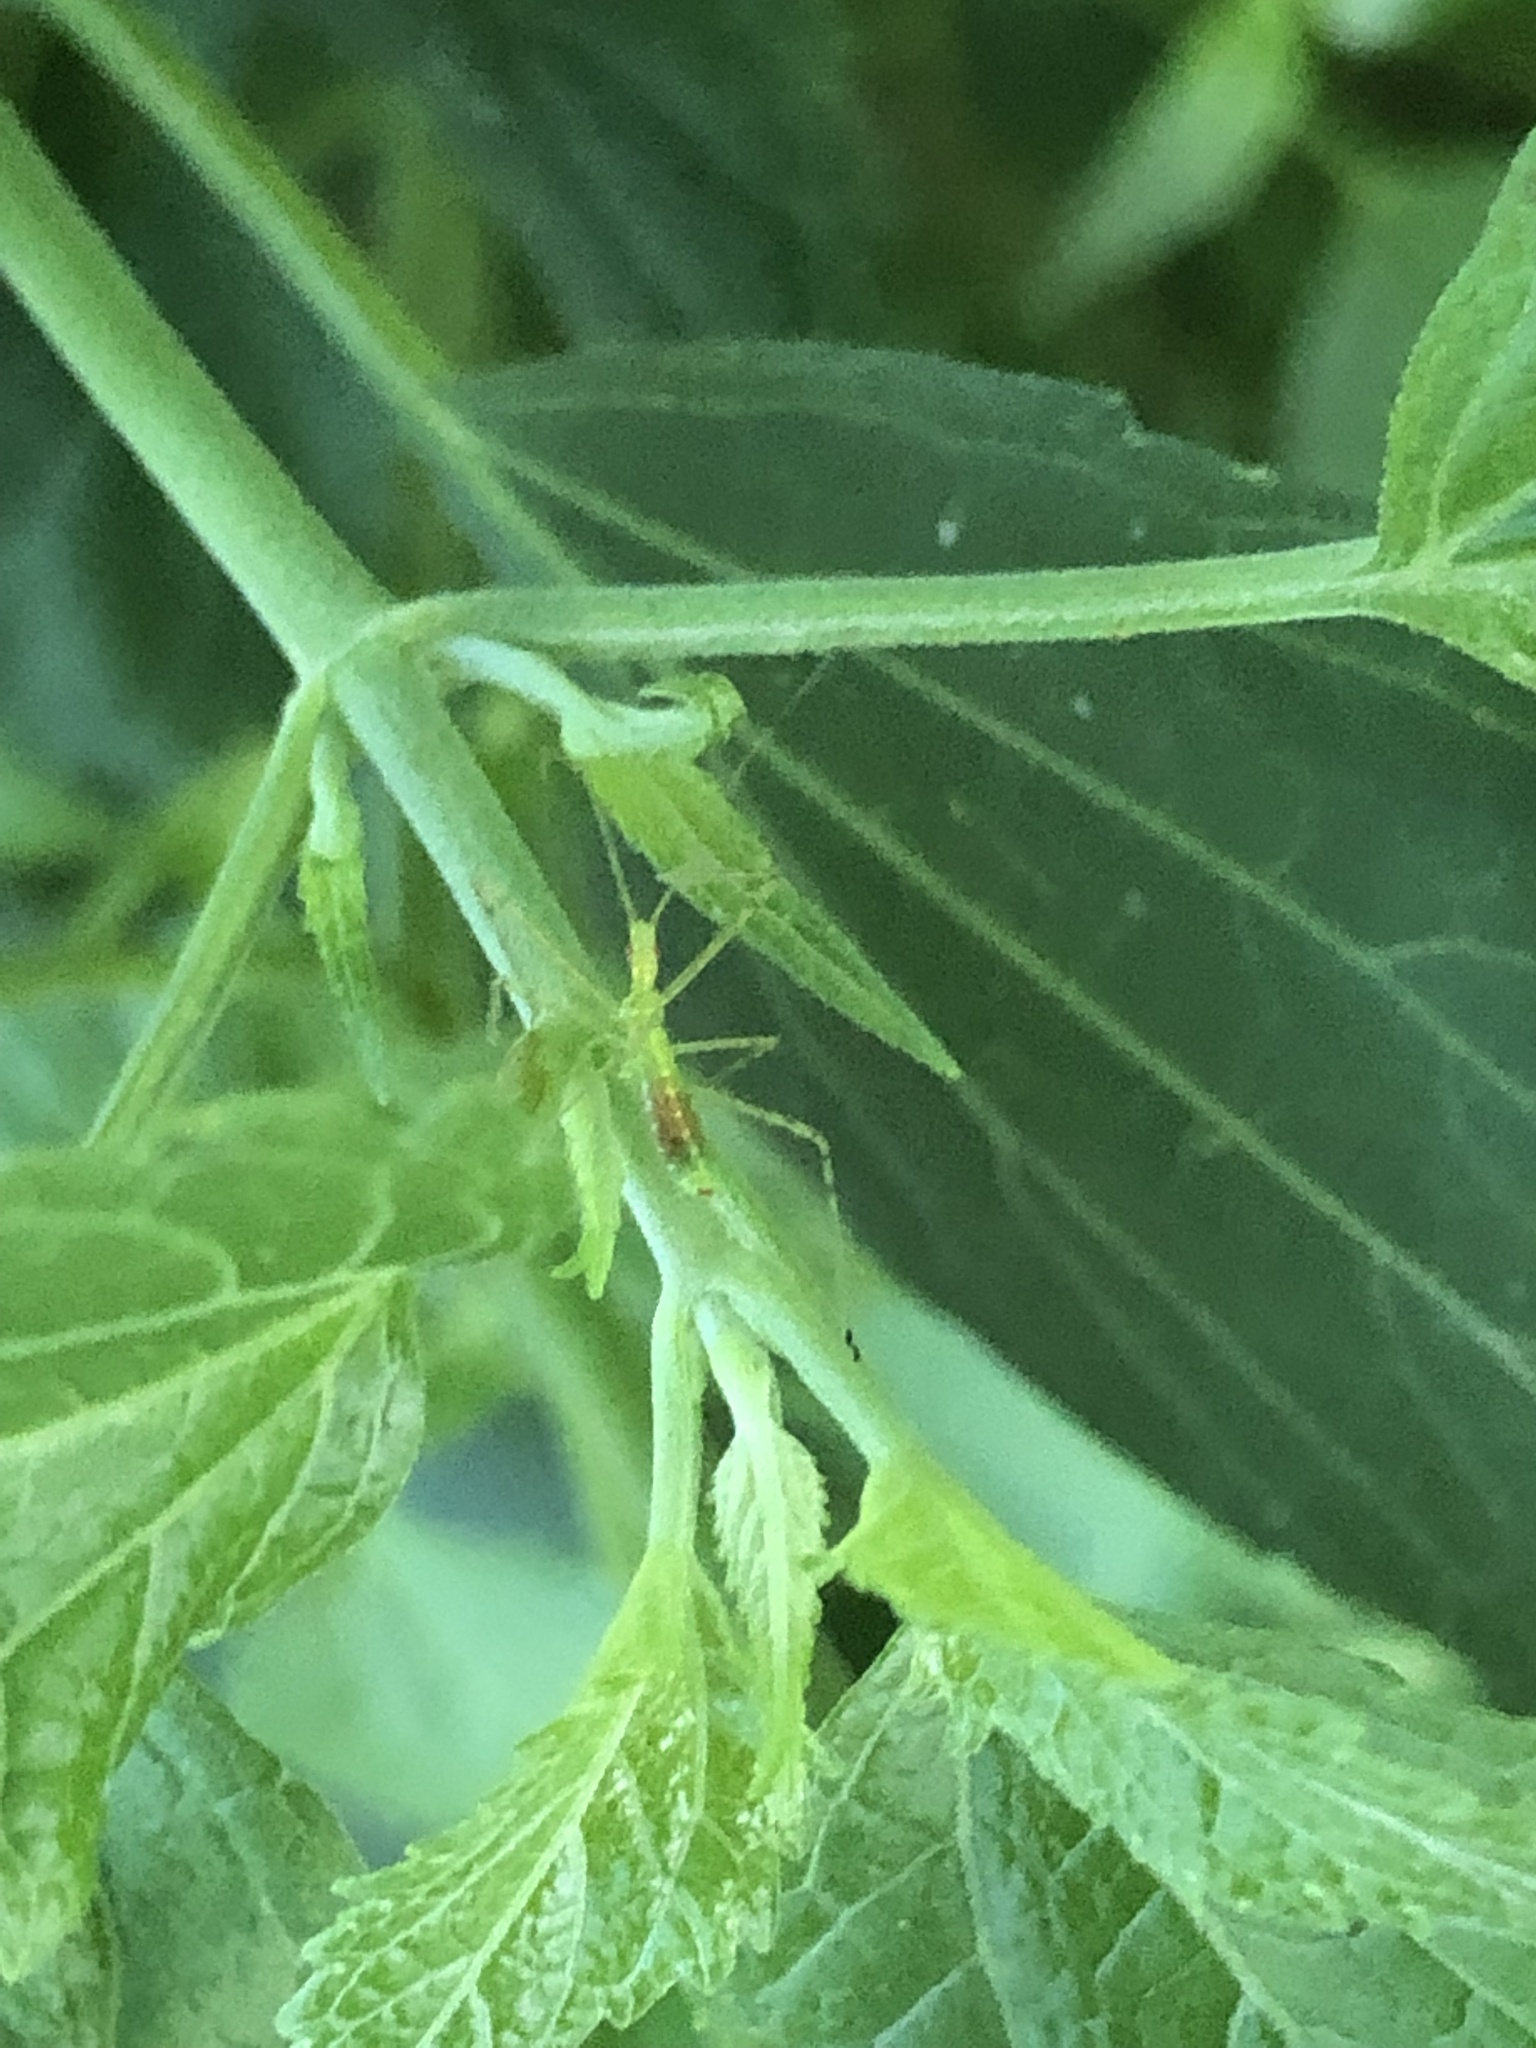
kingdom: Animalia
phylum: Arthropoda
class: Insecta
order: Hemiptera
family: Reduviidae
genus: Zelus
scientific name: Zelus luridus
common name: Pale green assassin bug
